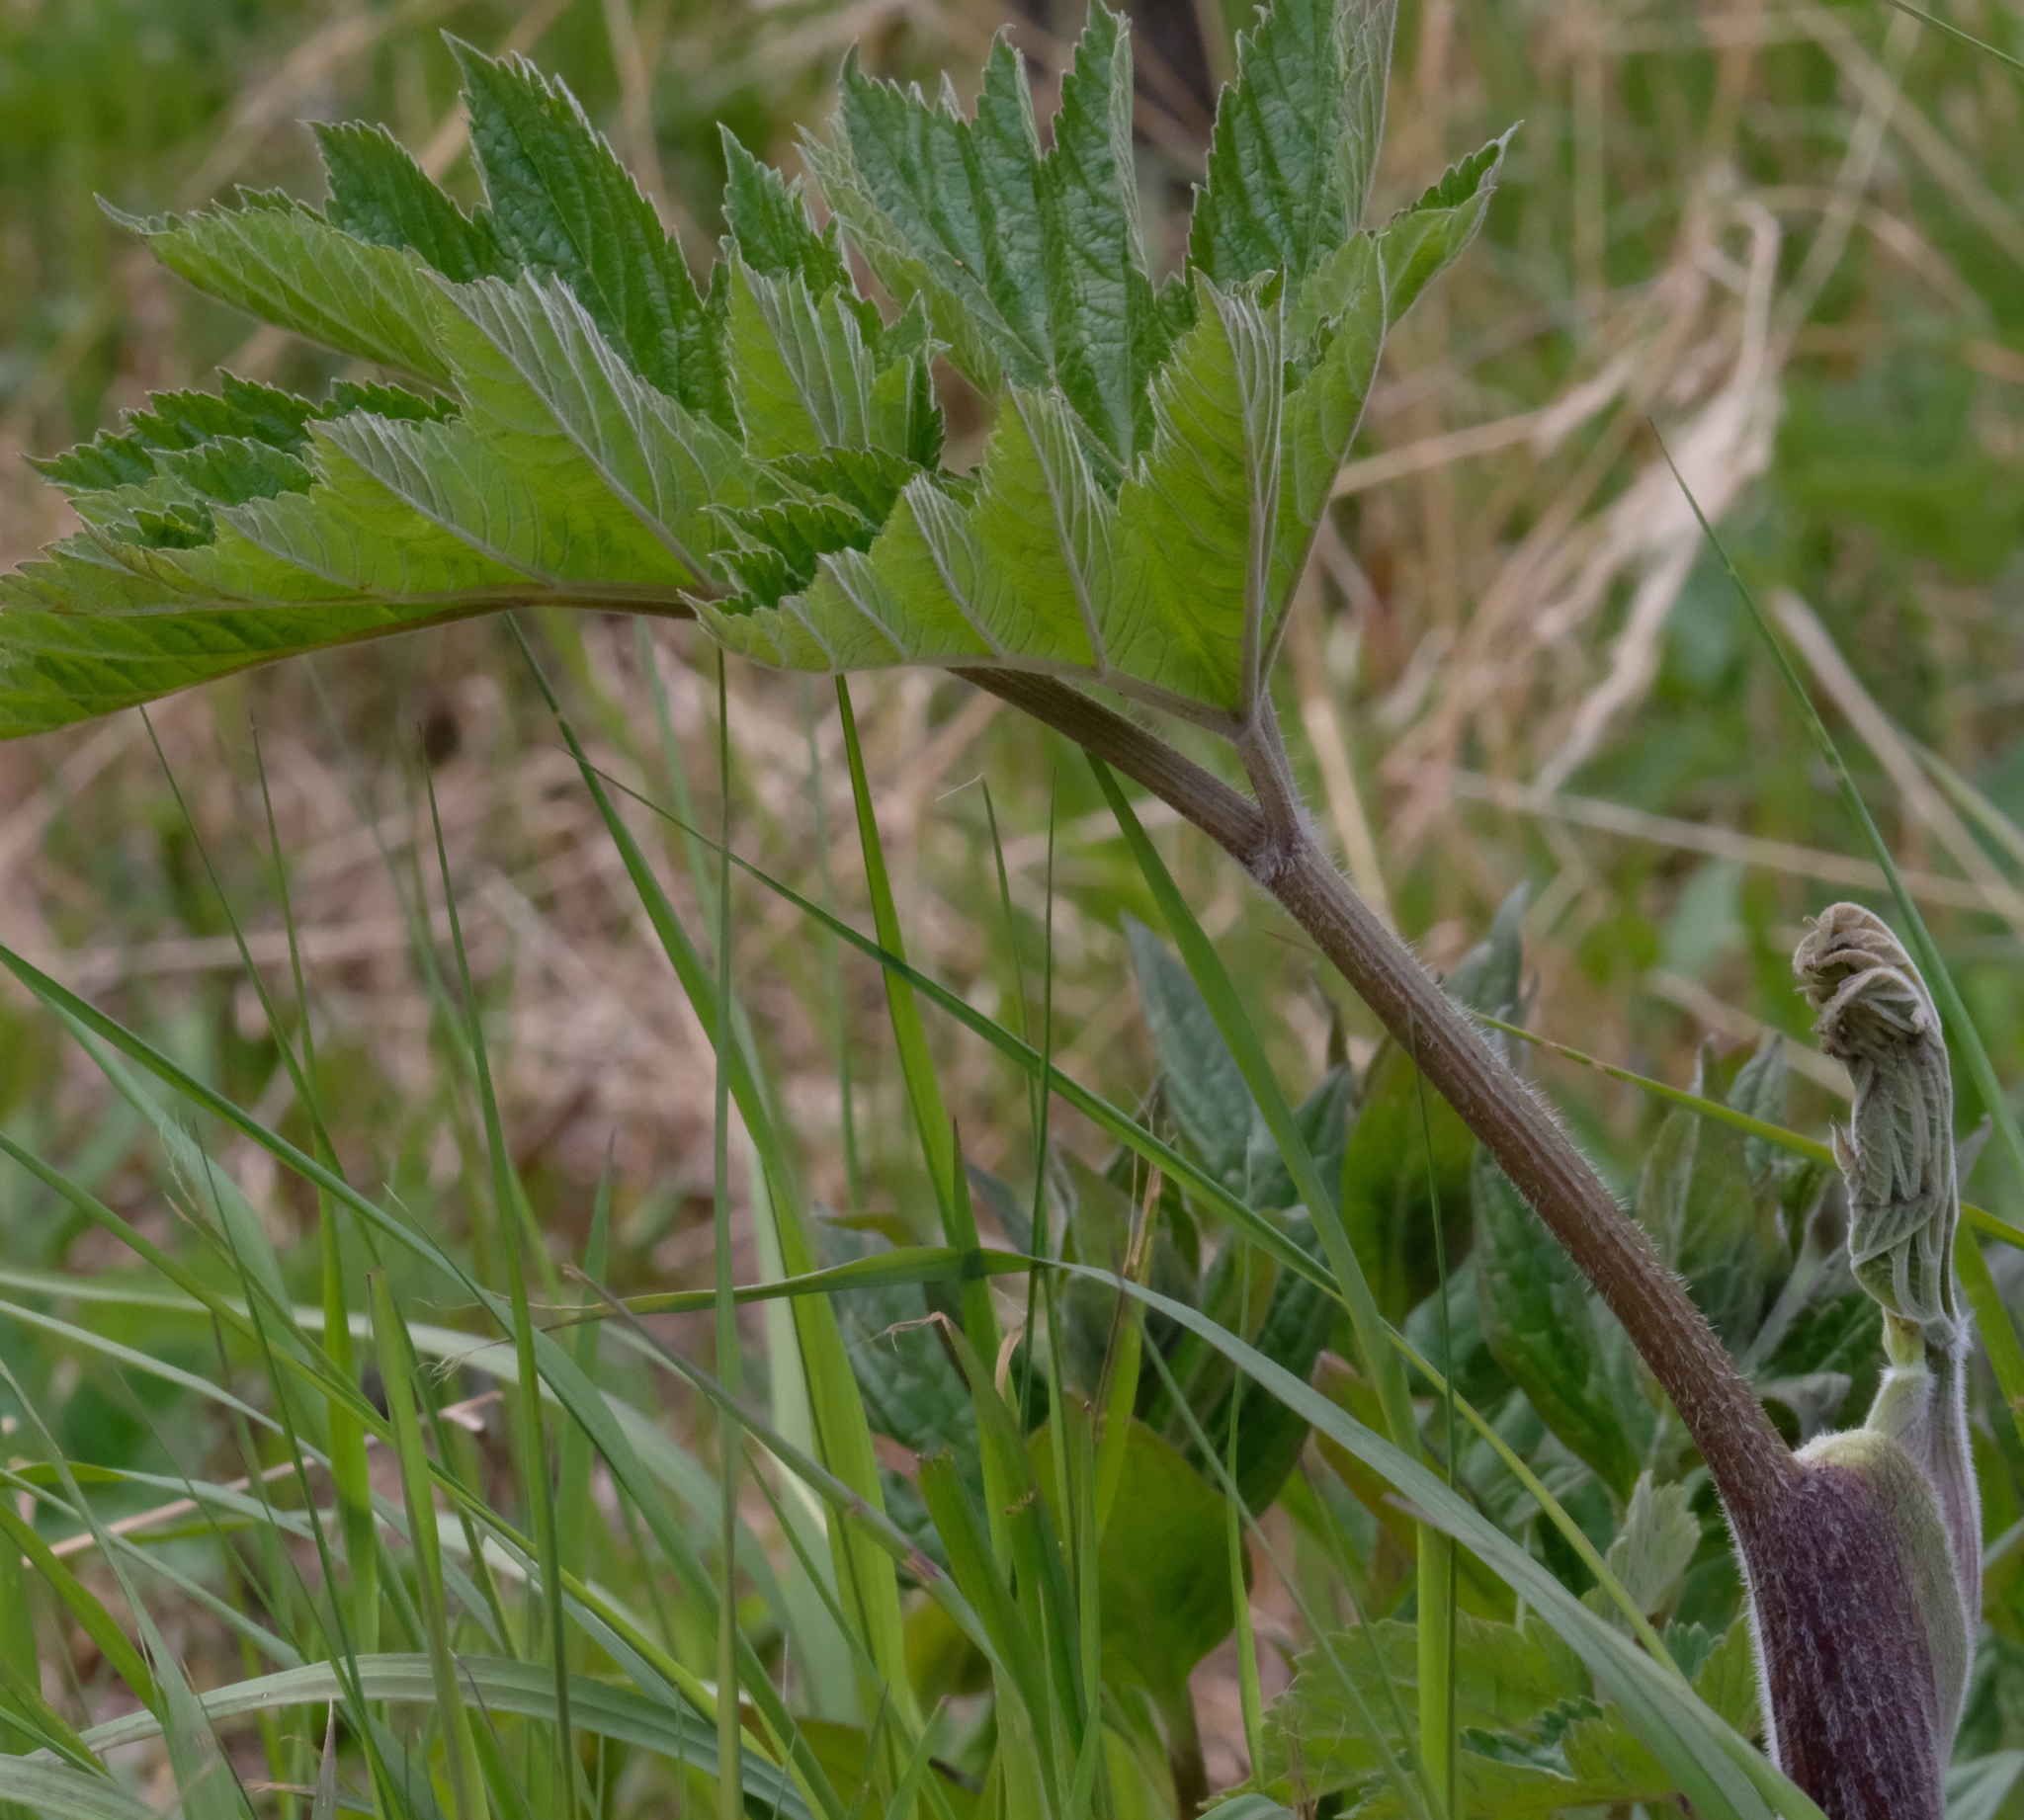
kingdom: Plantae
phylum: Tracheophyta
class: Magnoliopsida
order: Apiales
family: Apiaceae
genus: Heracleum
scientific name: Heracleum maximum
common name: American cow parsnip
